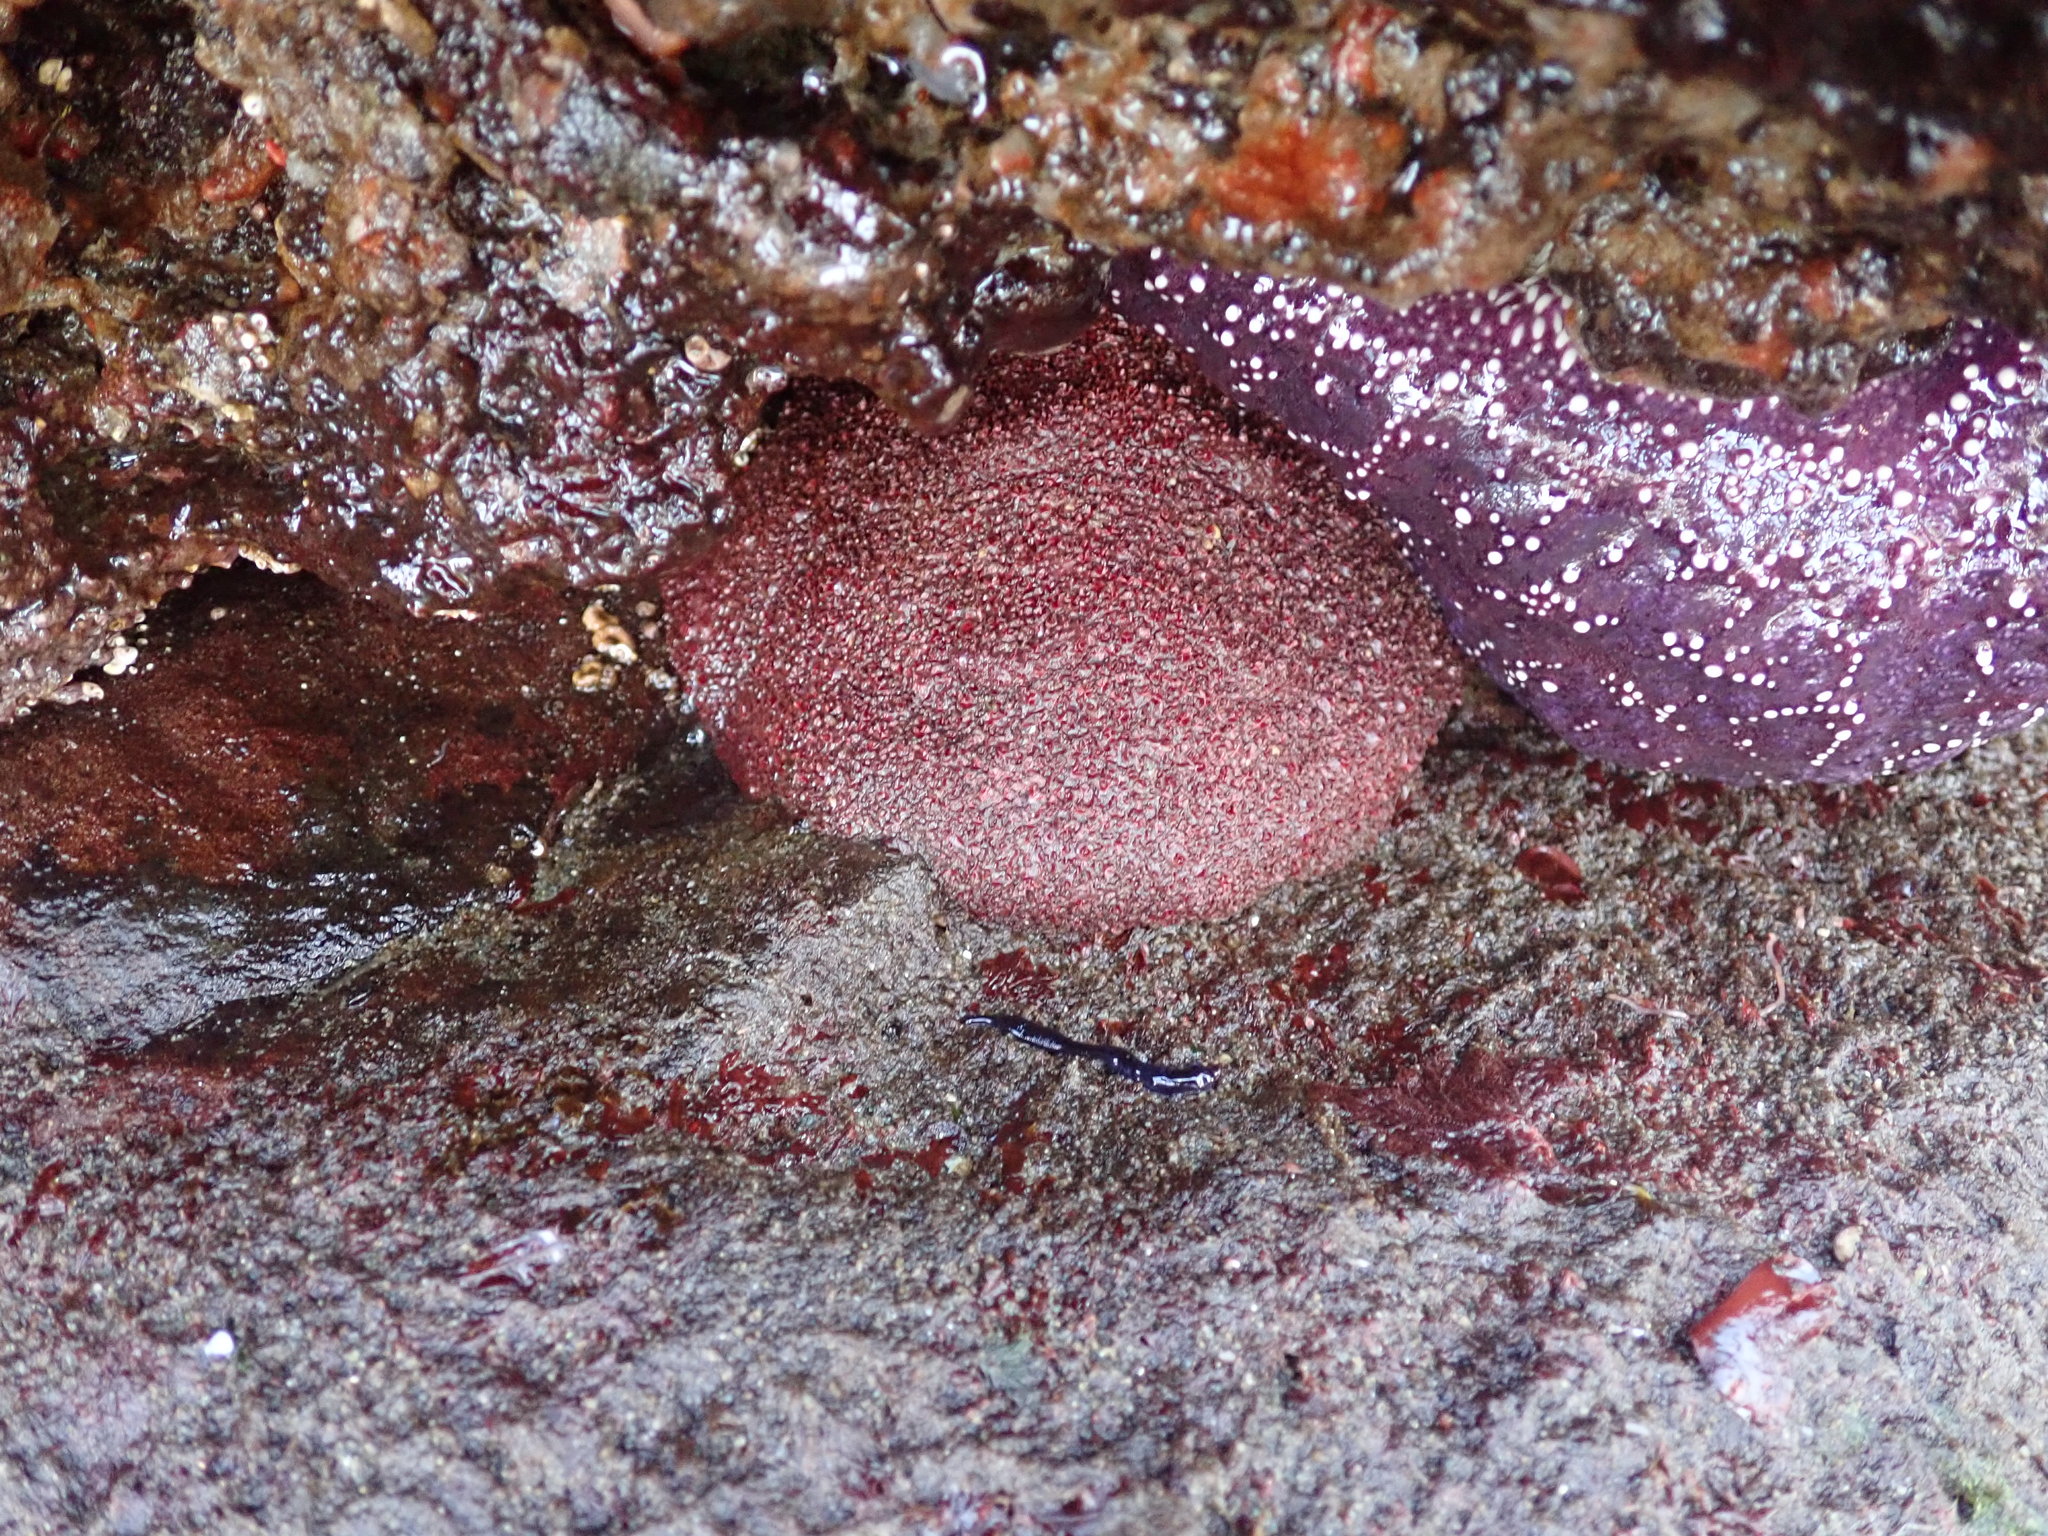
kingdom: Animalia
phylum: Mollusca
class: Polyplacophora
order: Chitonida
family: Acanthochitonidae
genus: Cryptochiton
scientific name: Cryptochiton stelleri
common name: Giant pacific chiton
